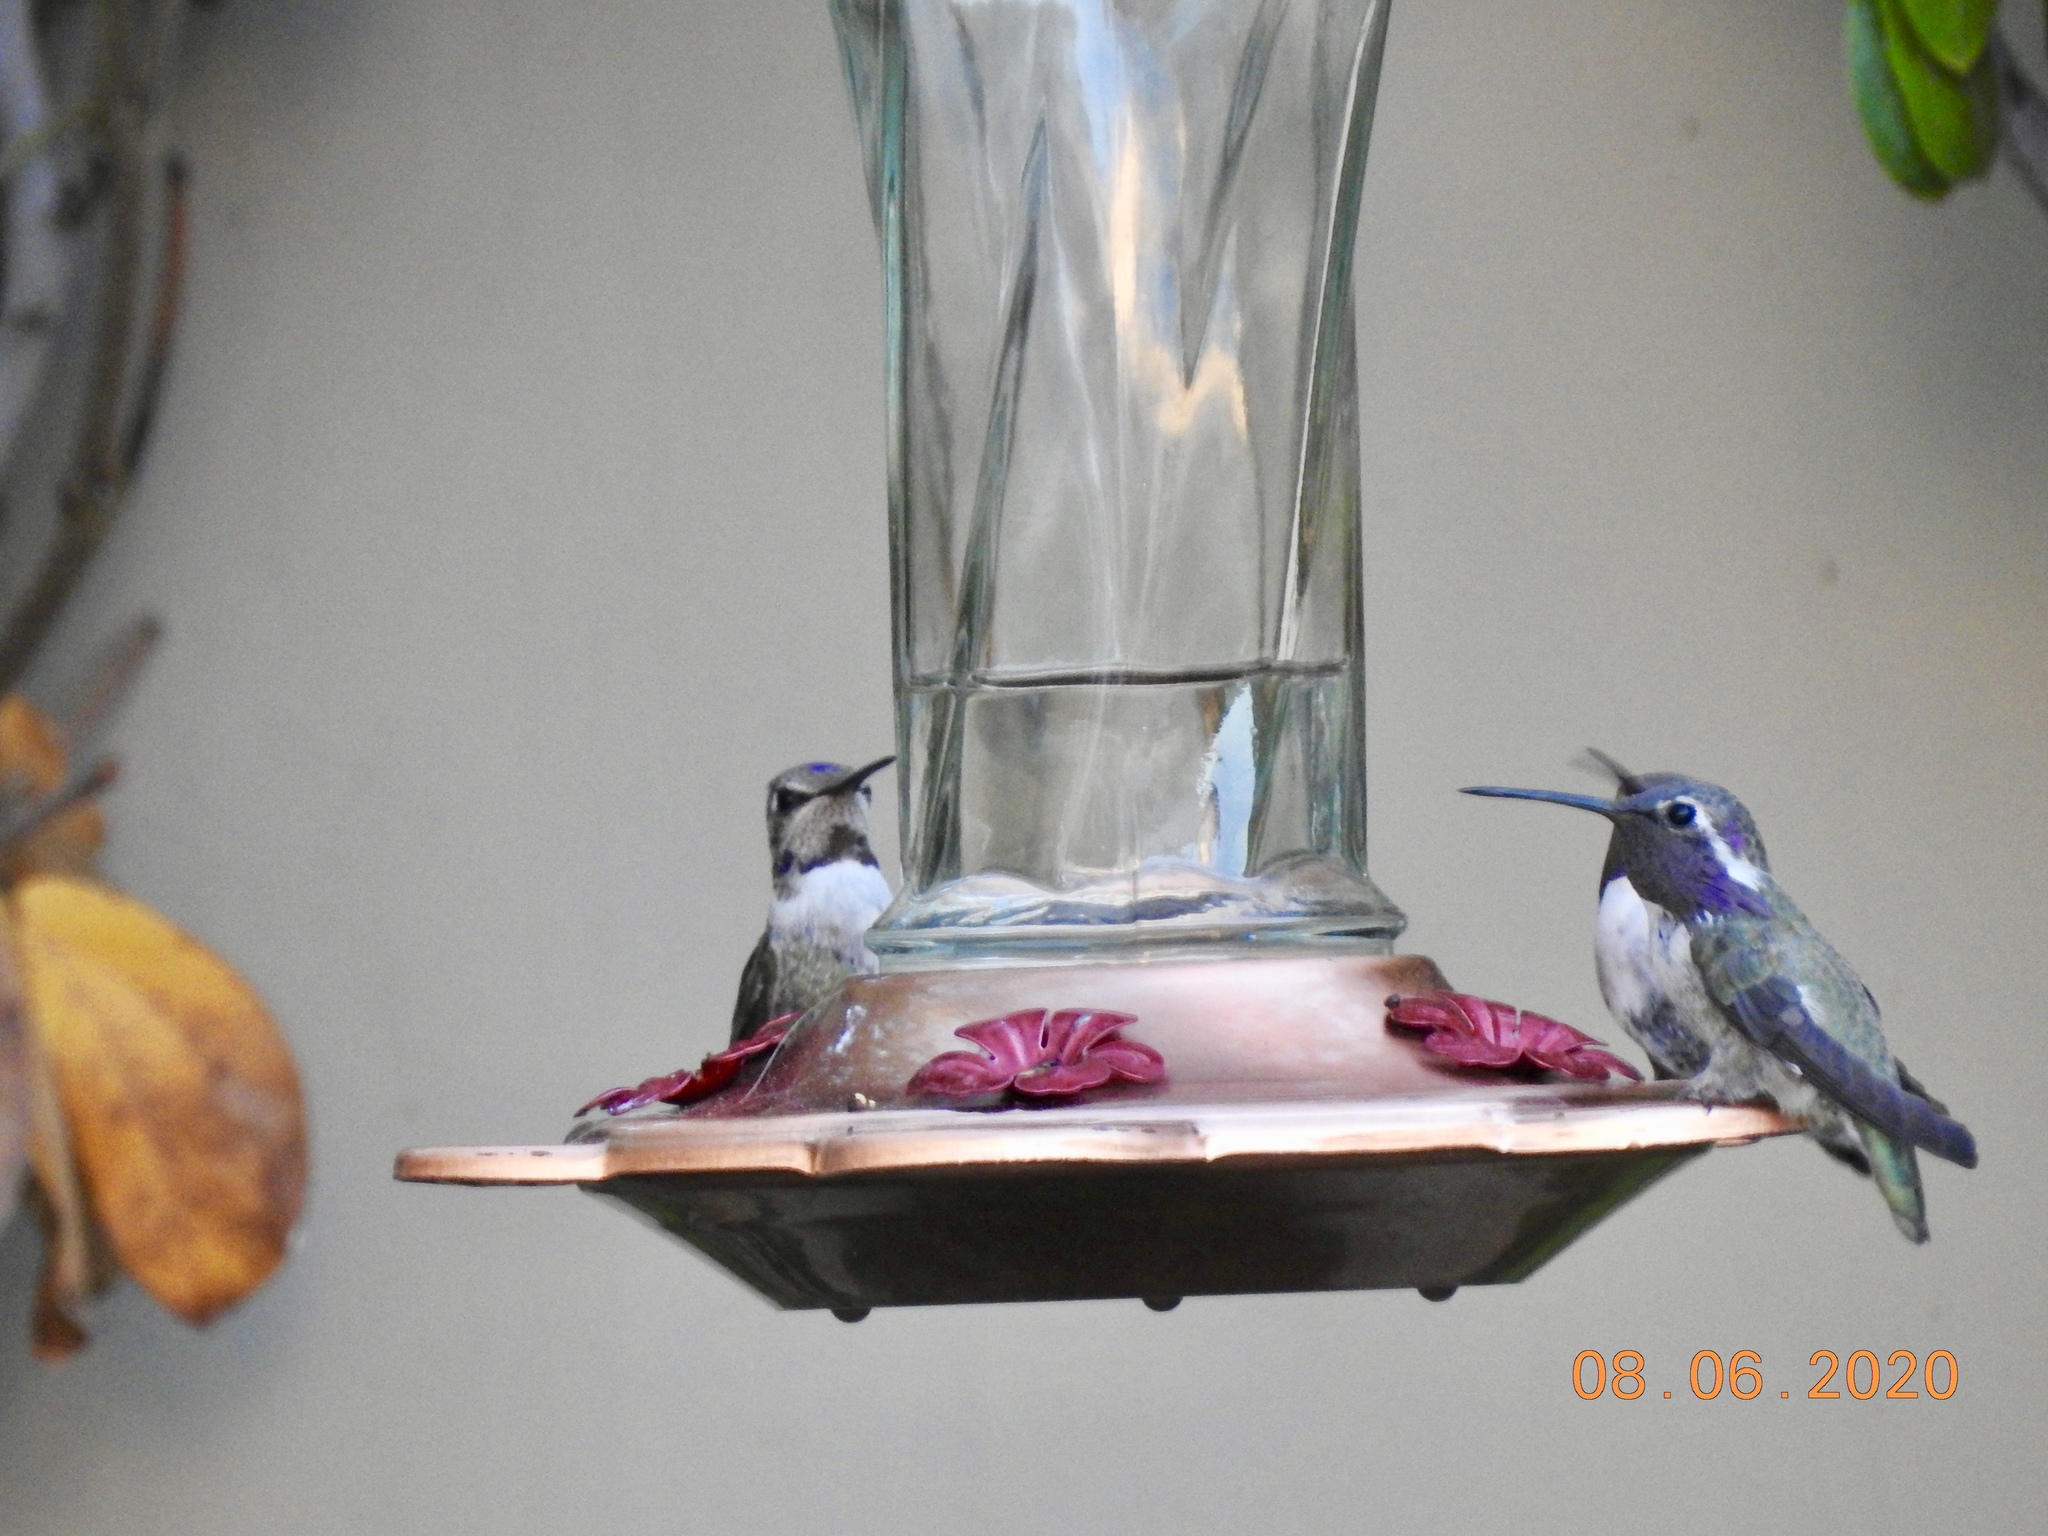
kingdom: Animalia
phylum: Chordata
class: Aves
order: Apodiformes
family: Trochilidae
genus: Calypte
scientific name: Calypte costae
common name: Costa's hummingbird
